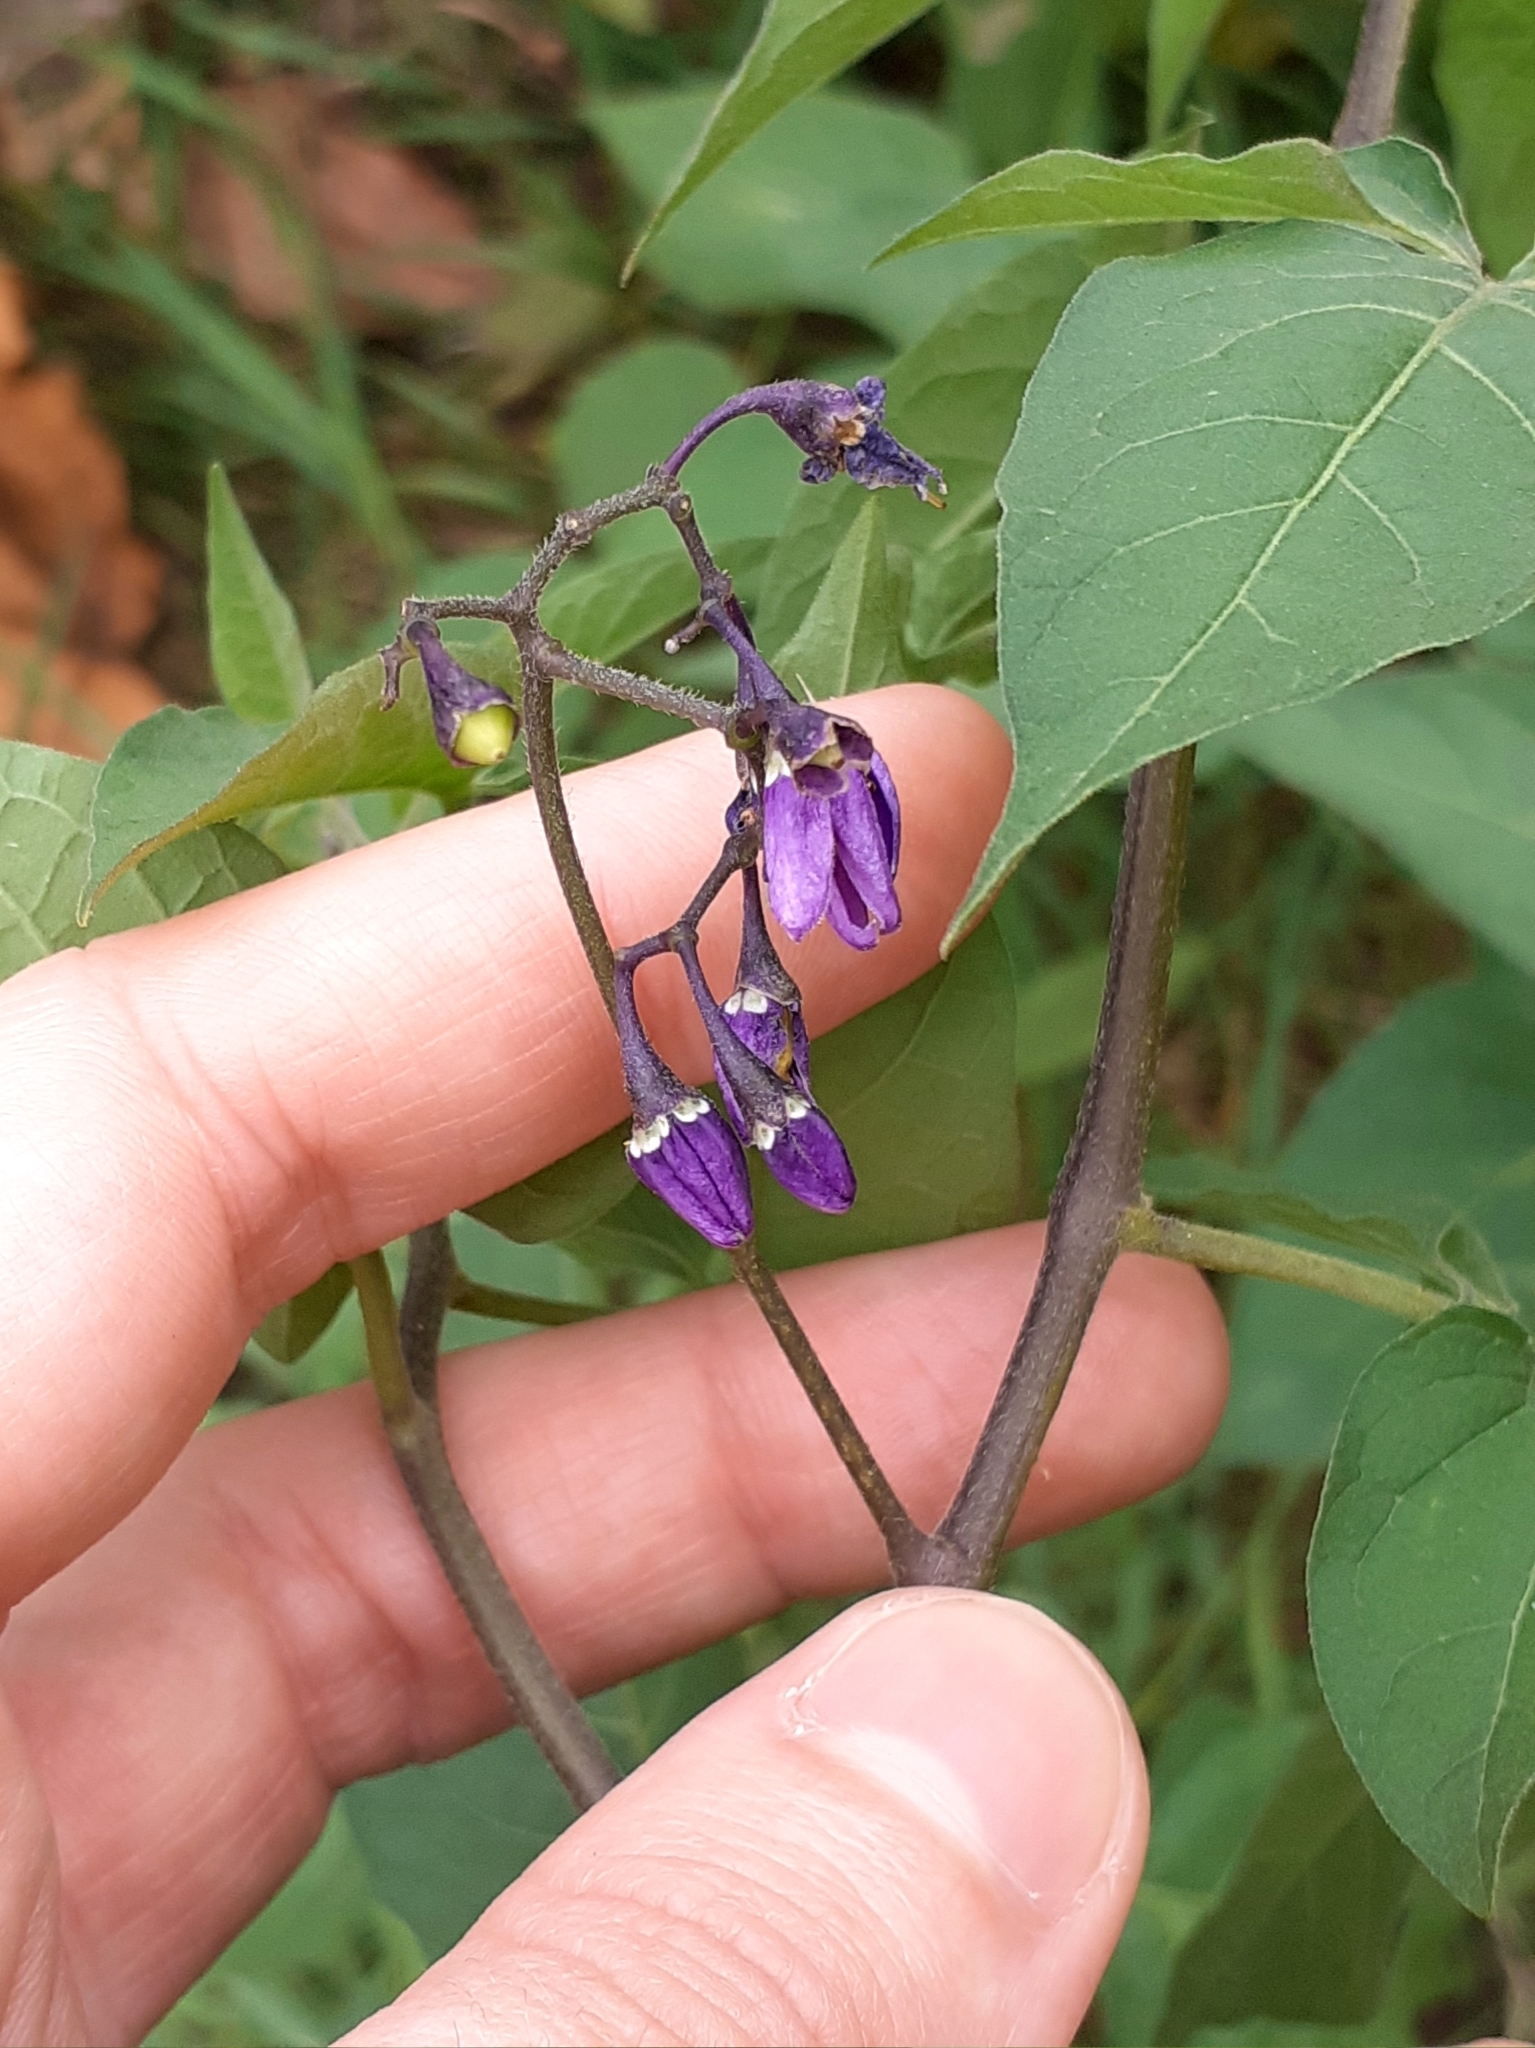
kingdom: Plantae
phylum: Tracheophyta
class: Magnoliopsida
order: Solanales
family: Solanaceae
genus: Solanum
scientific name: Solanum dulcamara
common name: Climbing nightshade
